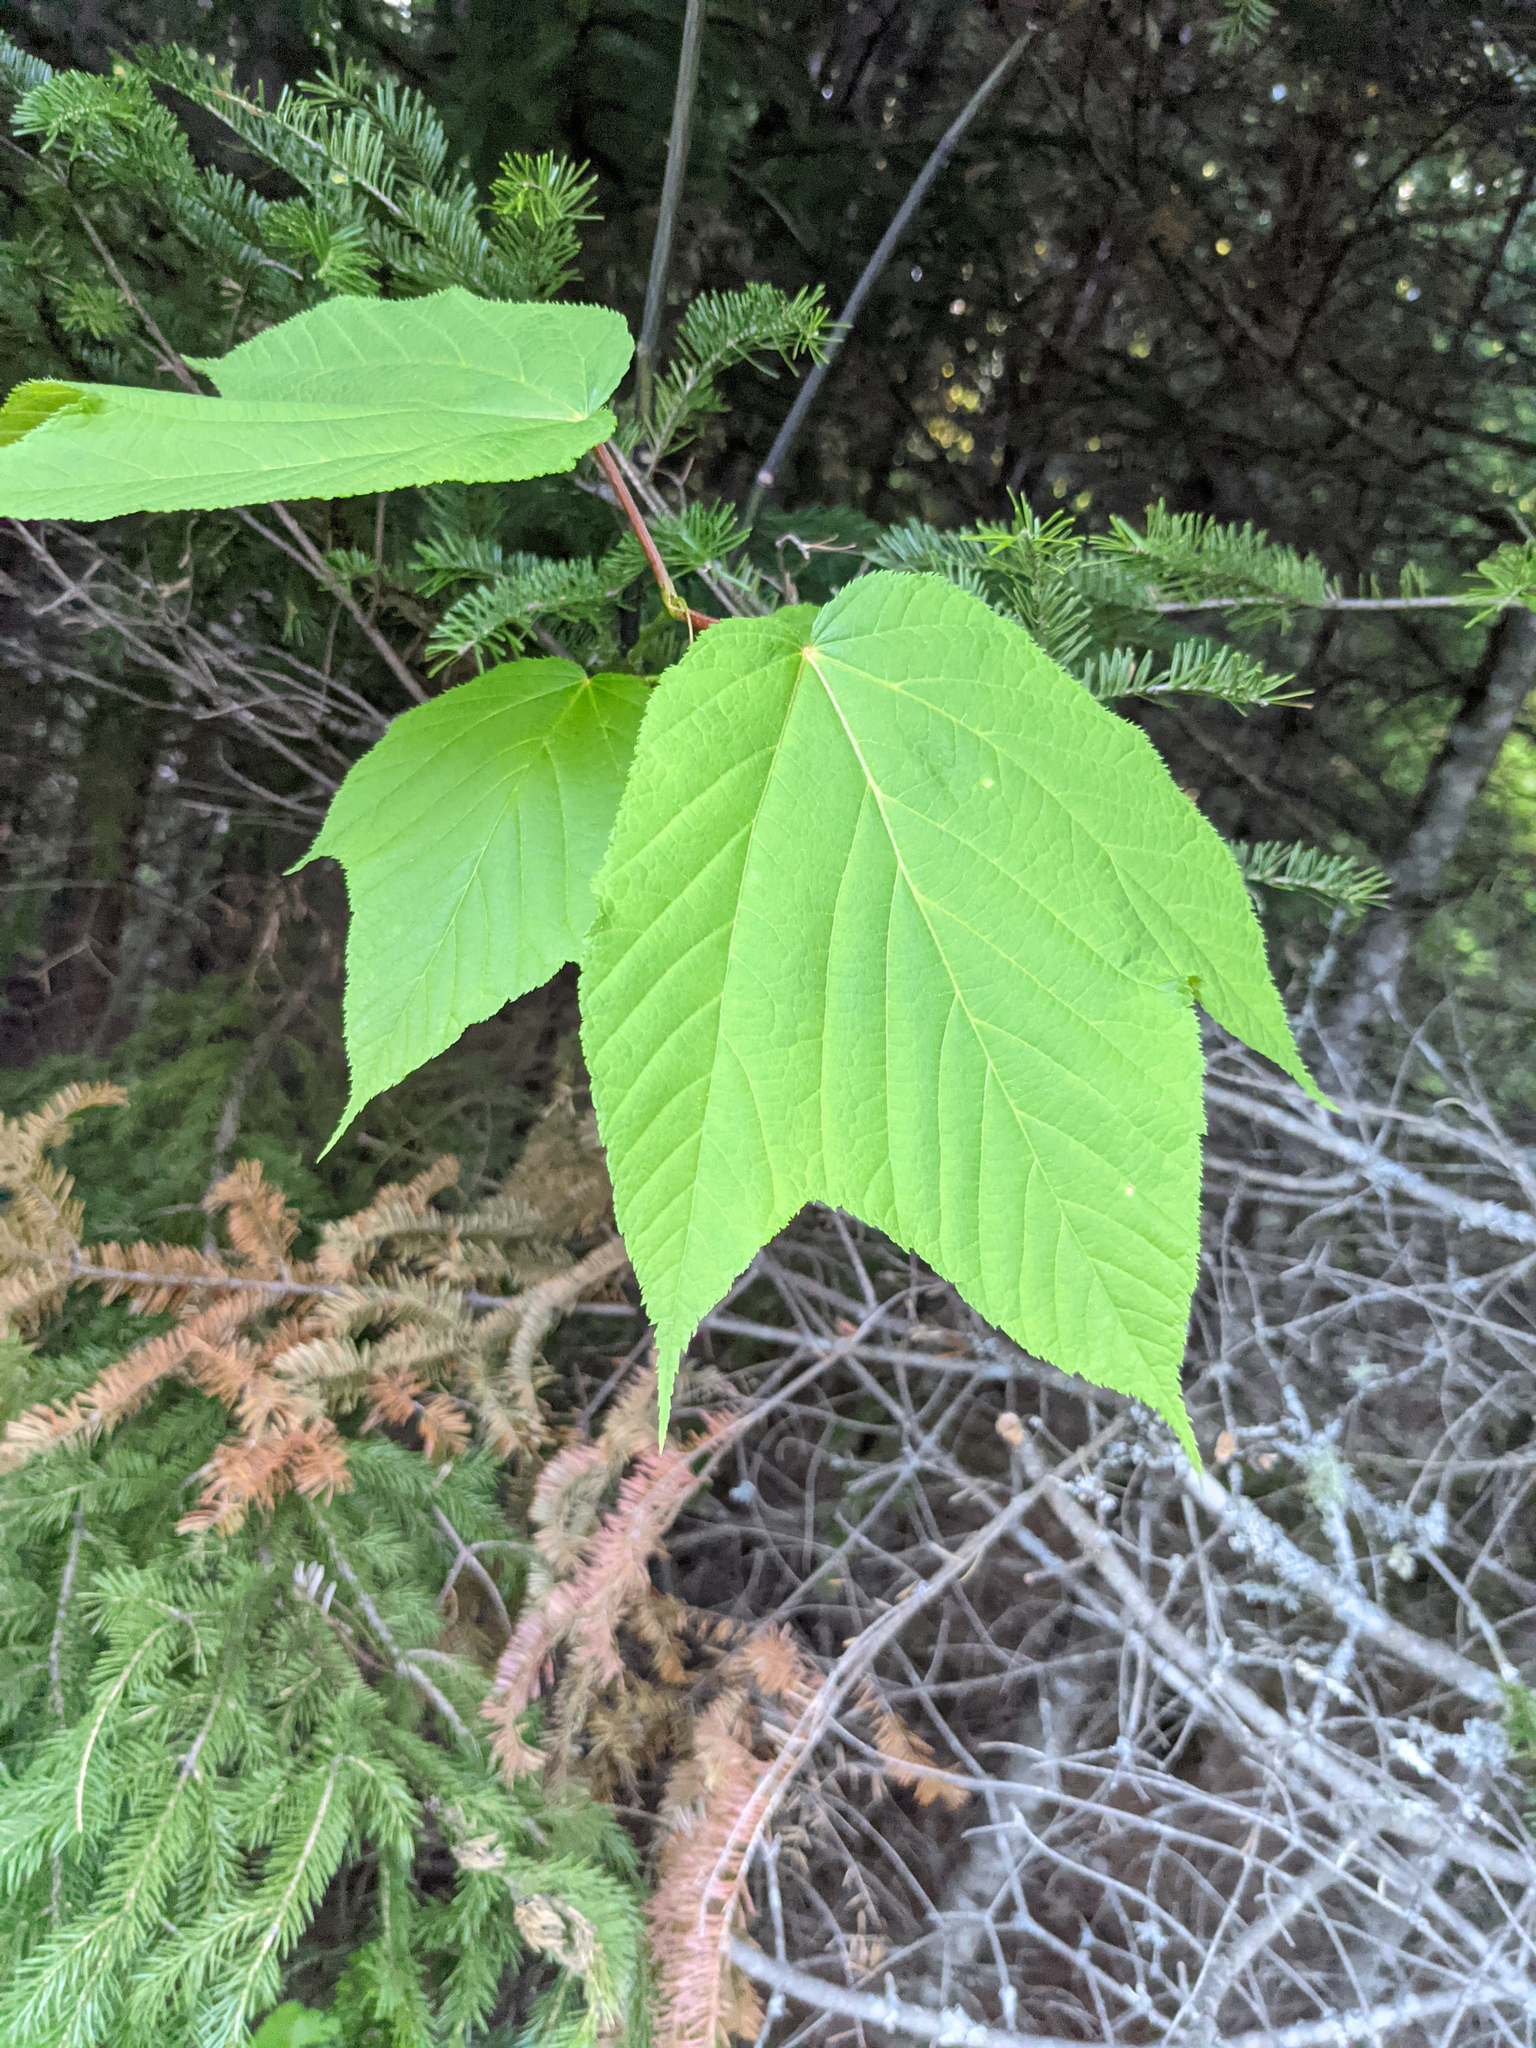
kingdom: Plantae
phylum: Tracheophyta
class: Magnoliopsida
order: Sapindales
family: Sapindaceae
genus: Acer
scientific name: Acer pensylvanicum
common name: Moosewood
